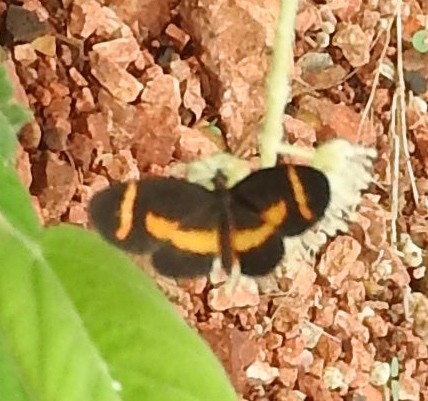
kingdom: Animalia
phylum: Arthropoda
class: Insecta
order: Lepidoptera
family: Nymphalidae
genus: Microtia
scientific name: Microtia elva
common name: Elf
